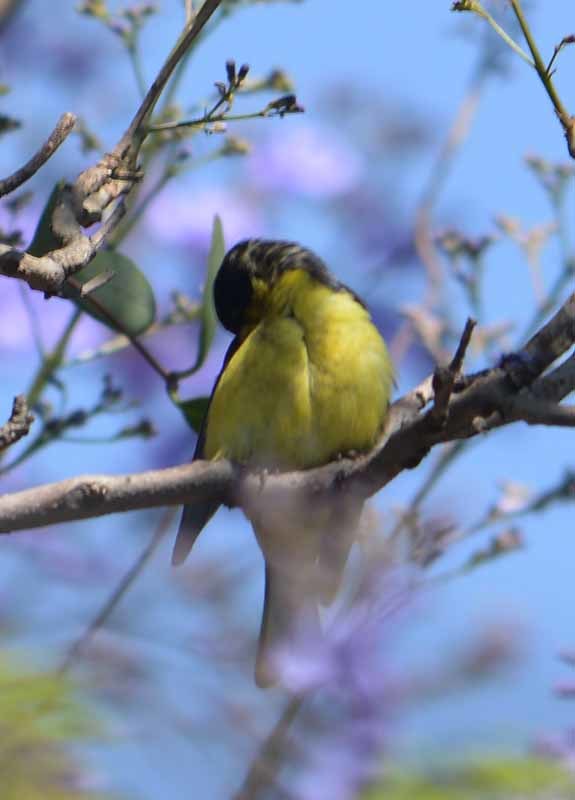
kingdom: Animalia
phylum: Chordata
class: Aves
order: Passeriformes
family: Fringillidae
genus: Spinus
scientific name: Spinus psaltria
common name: Lesser goldfinch
